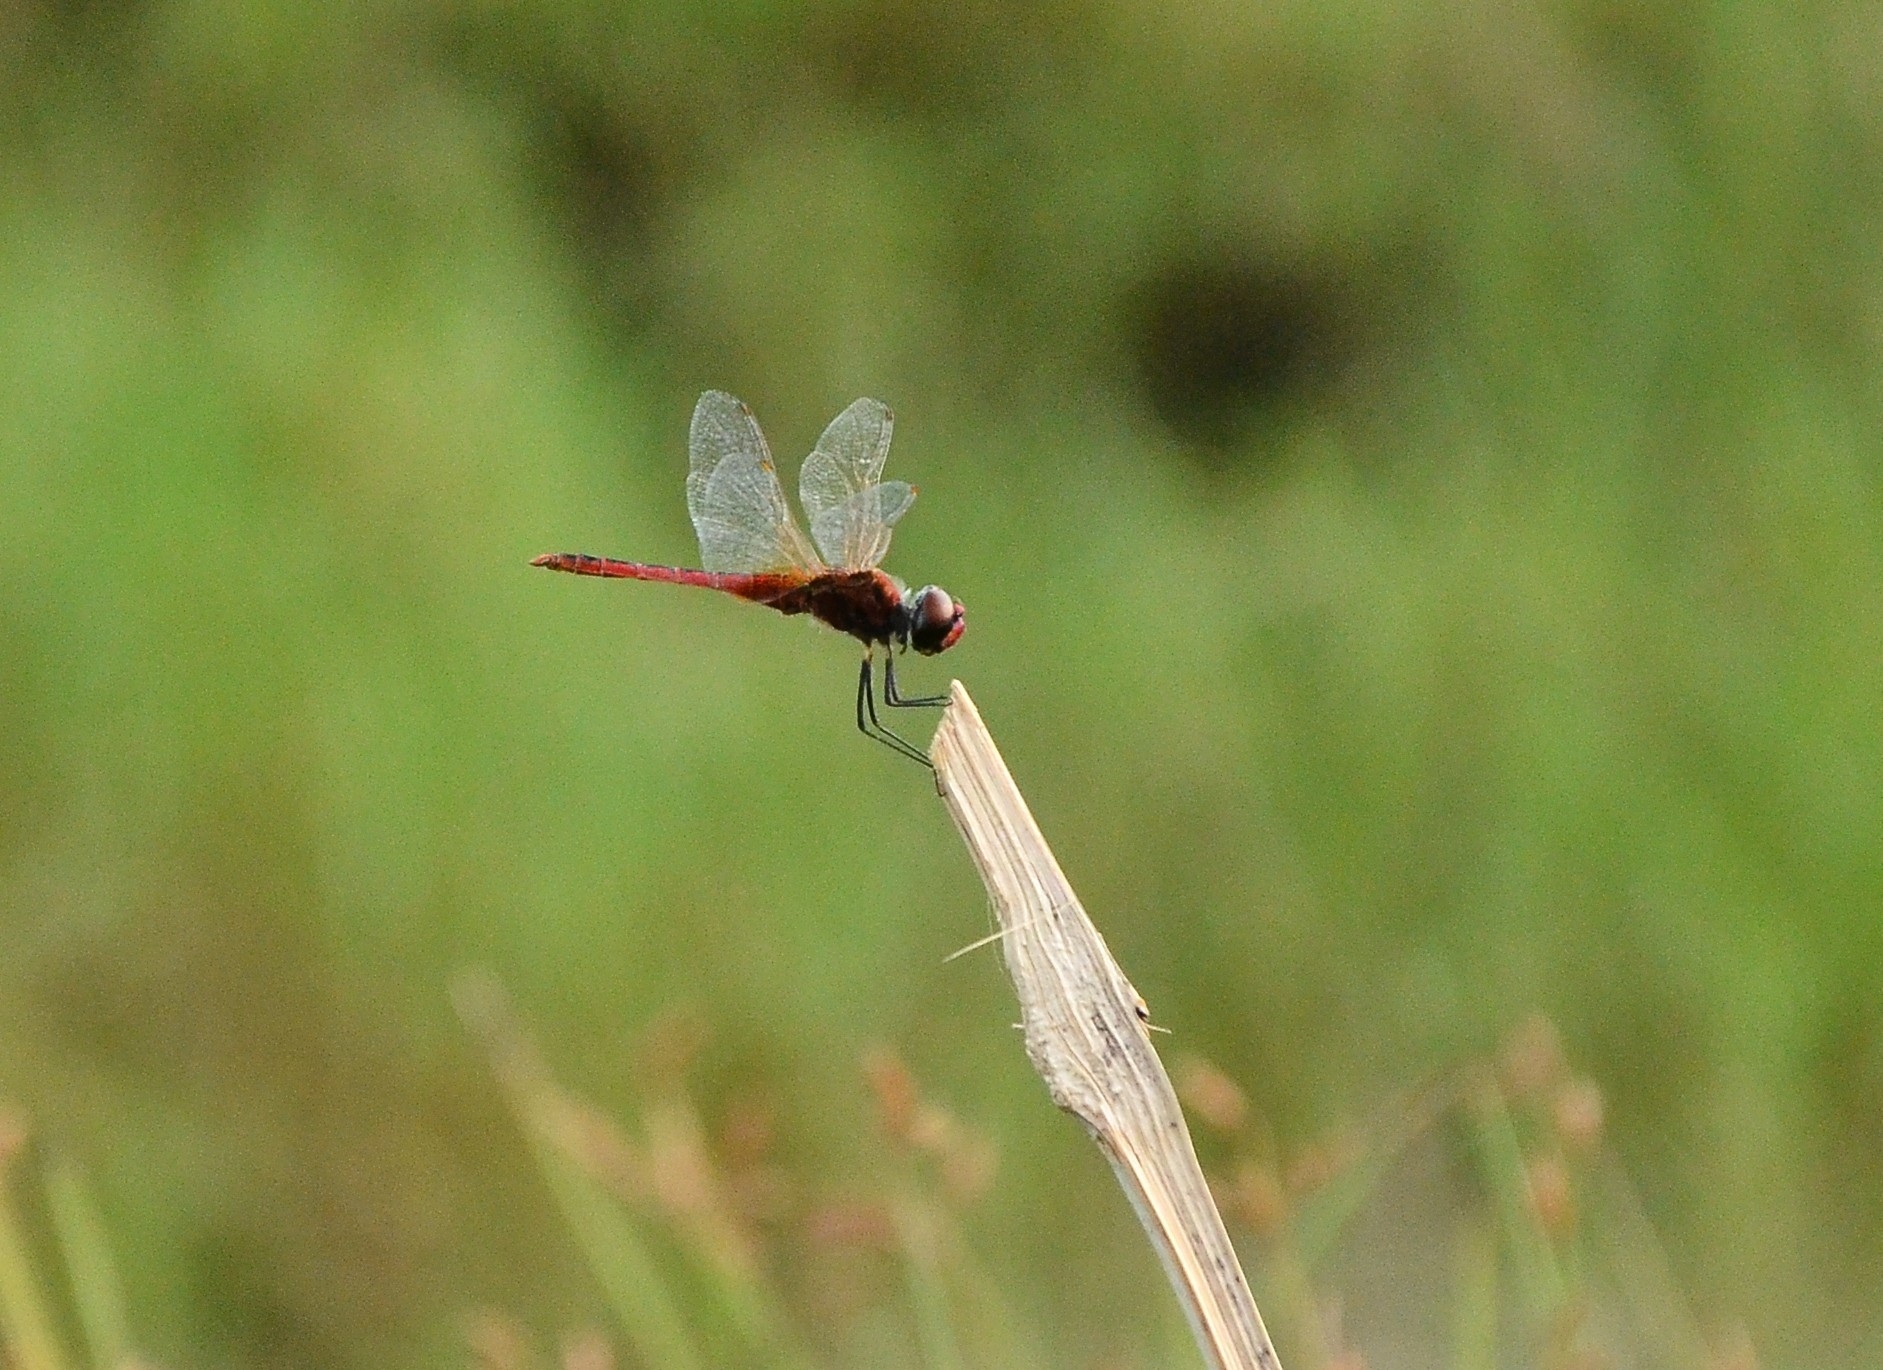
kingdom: Animalia
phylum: Arthropoda
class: Insecta
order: Odonata
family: Libellulidae
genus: Macrodiplax
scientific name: Macrodiplax cora
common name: Coastal glider
